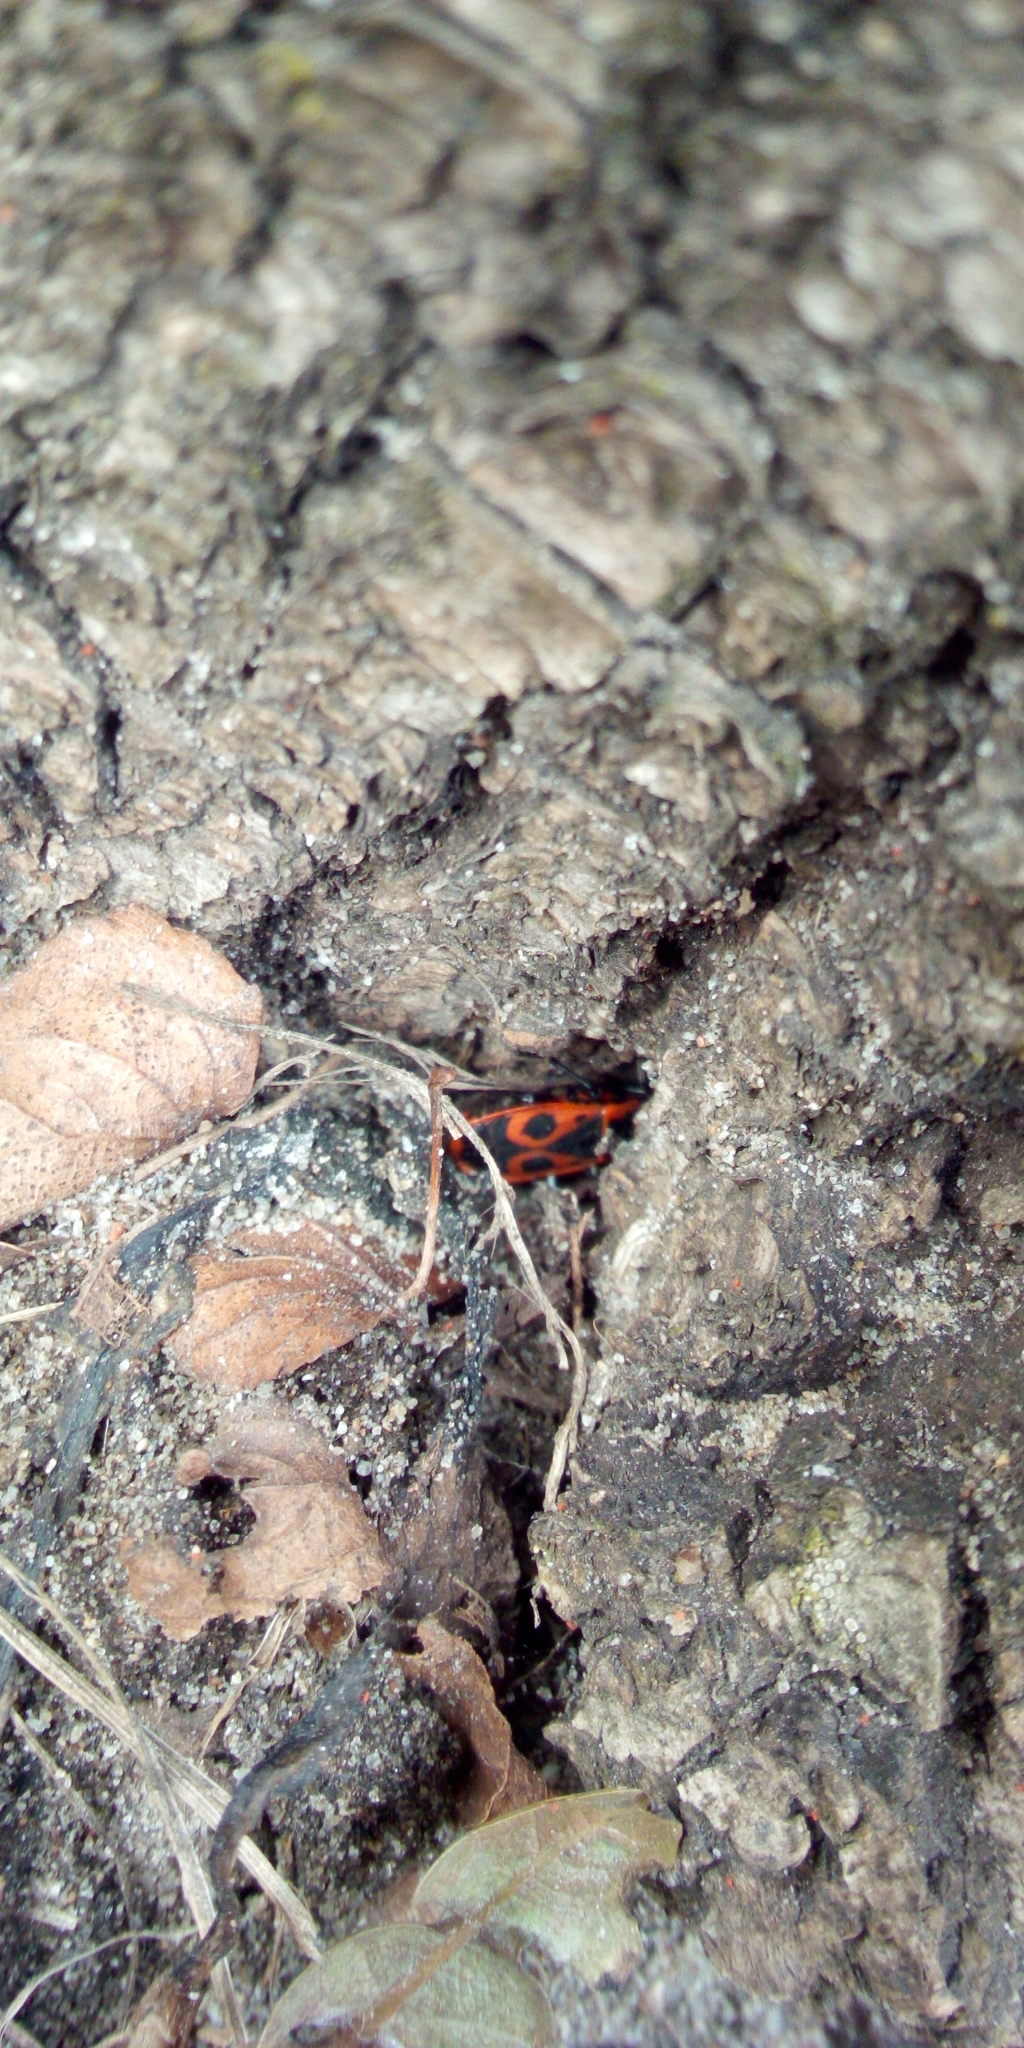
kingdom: Animalia
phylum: Arthropoda
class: Insecta
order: Hemiptera
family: Pyrrhocoridae
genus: Pyrrhocoris
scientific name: Pyrrhocoris apterus
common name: Firebug
